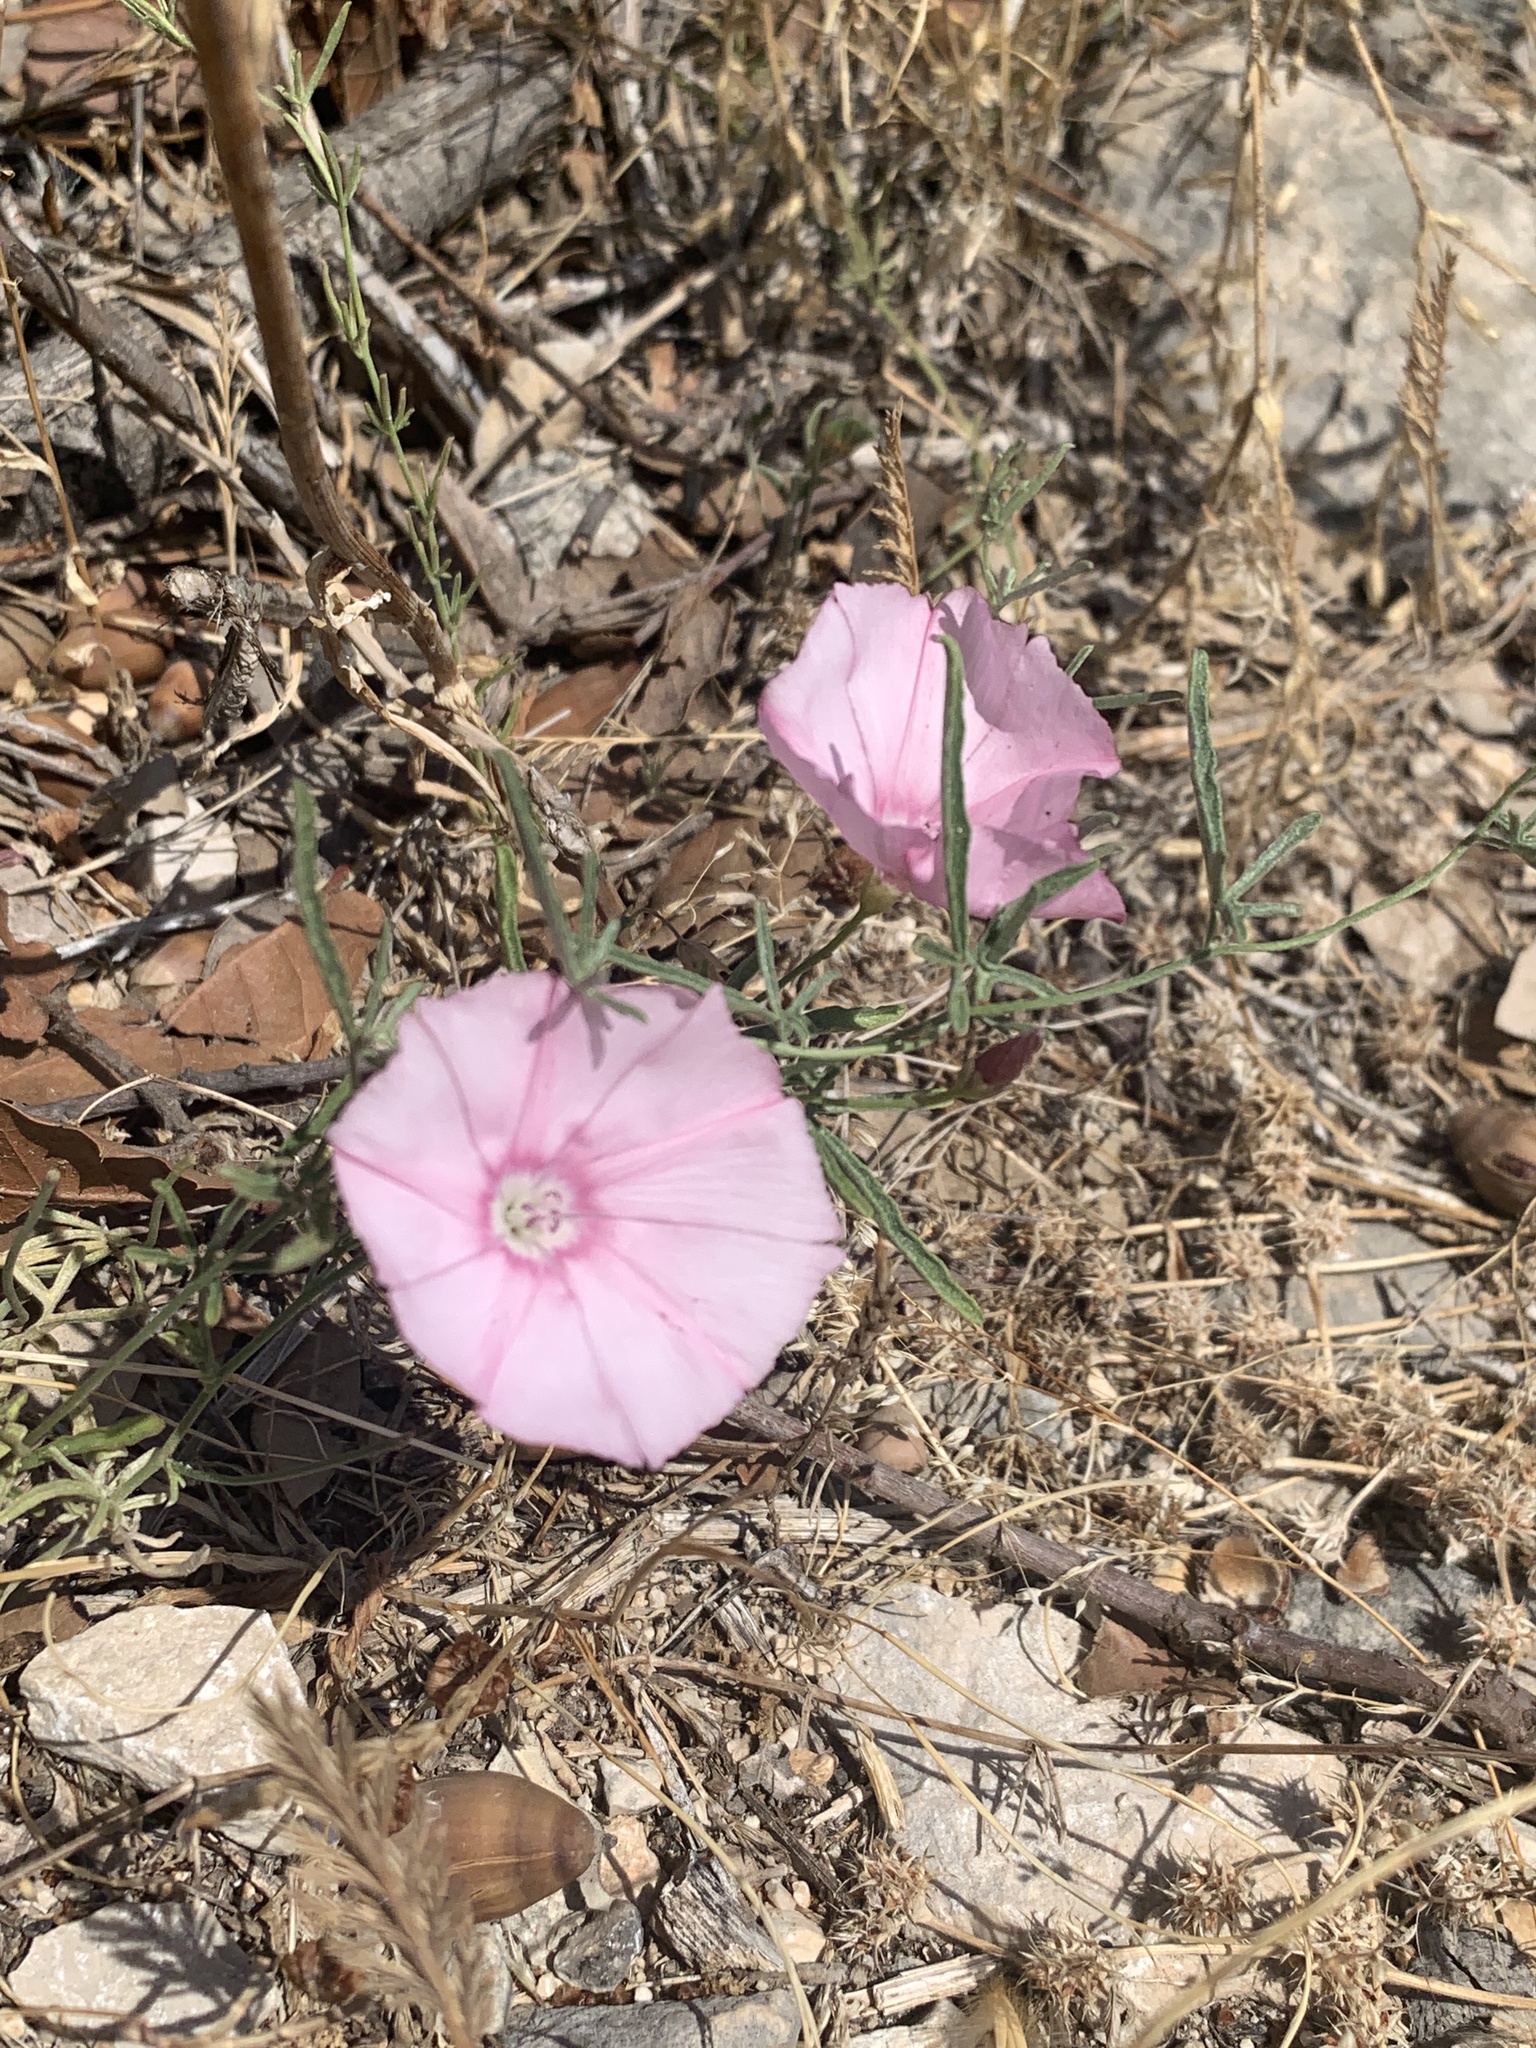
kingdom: Plantae
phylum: Tracheophyta
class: Magnoliopsida
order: Solanales
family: Convolvulaceae
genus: Convolvulus
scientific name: Convolvulus elegantissimus
